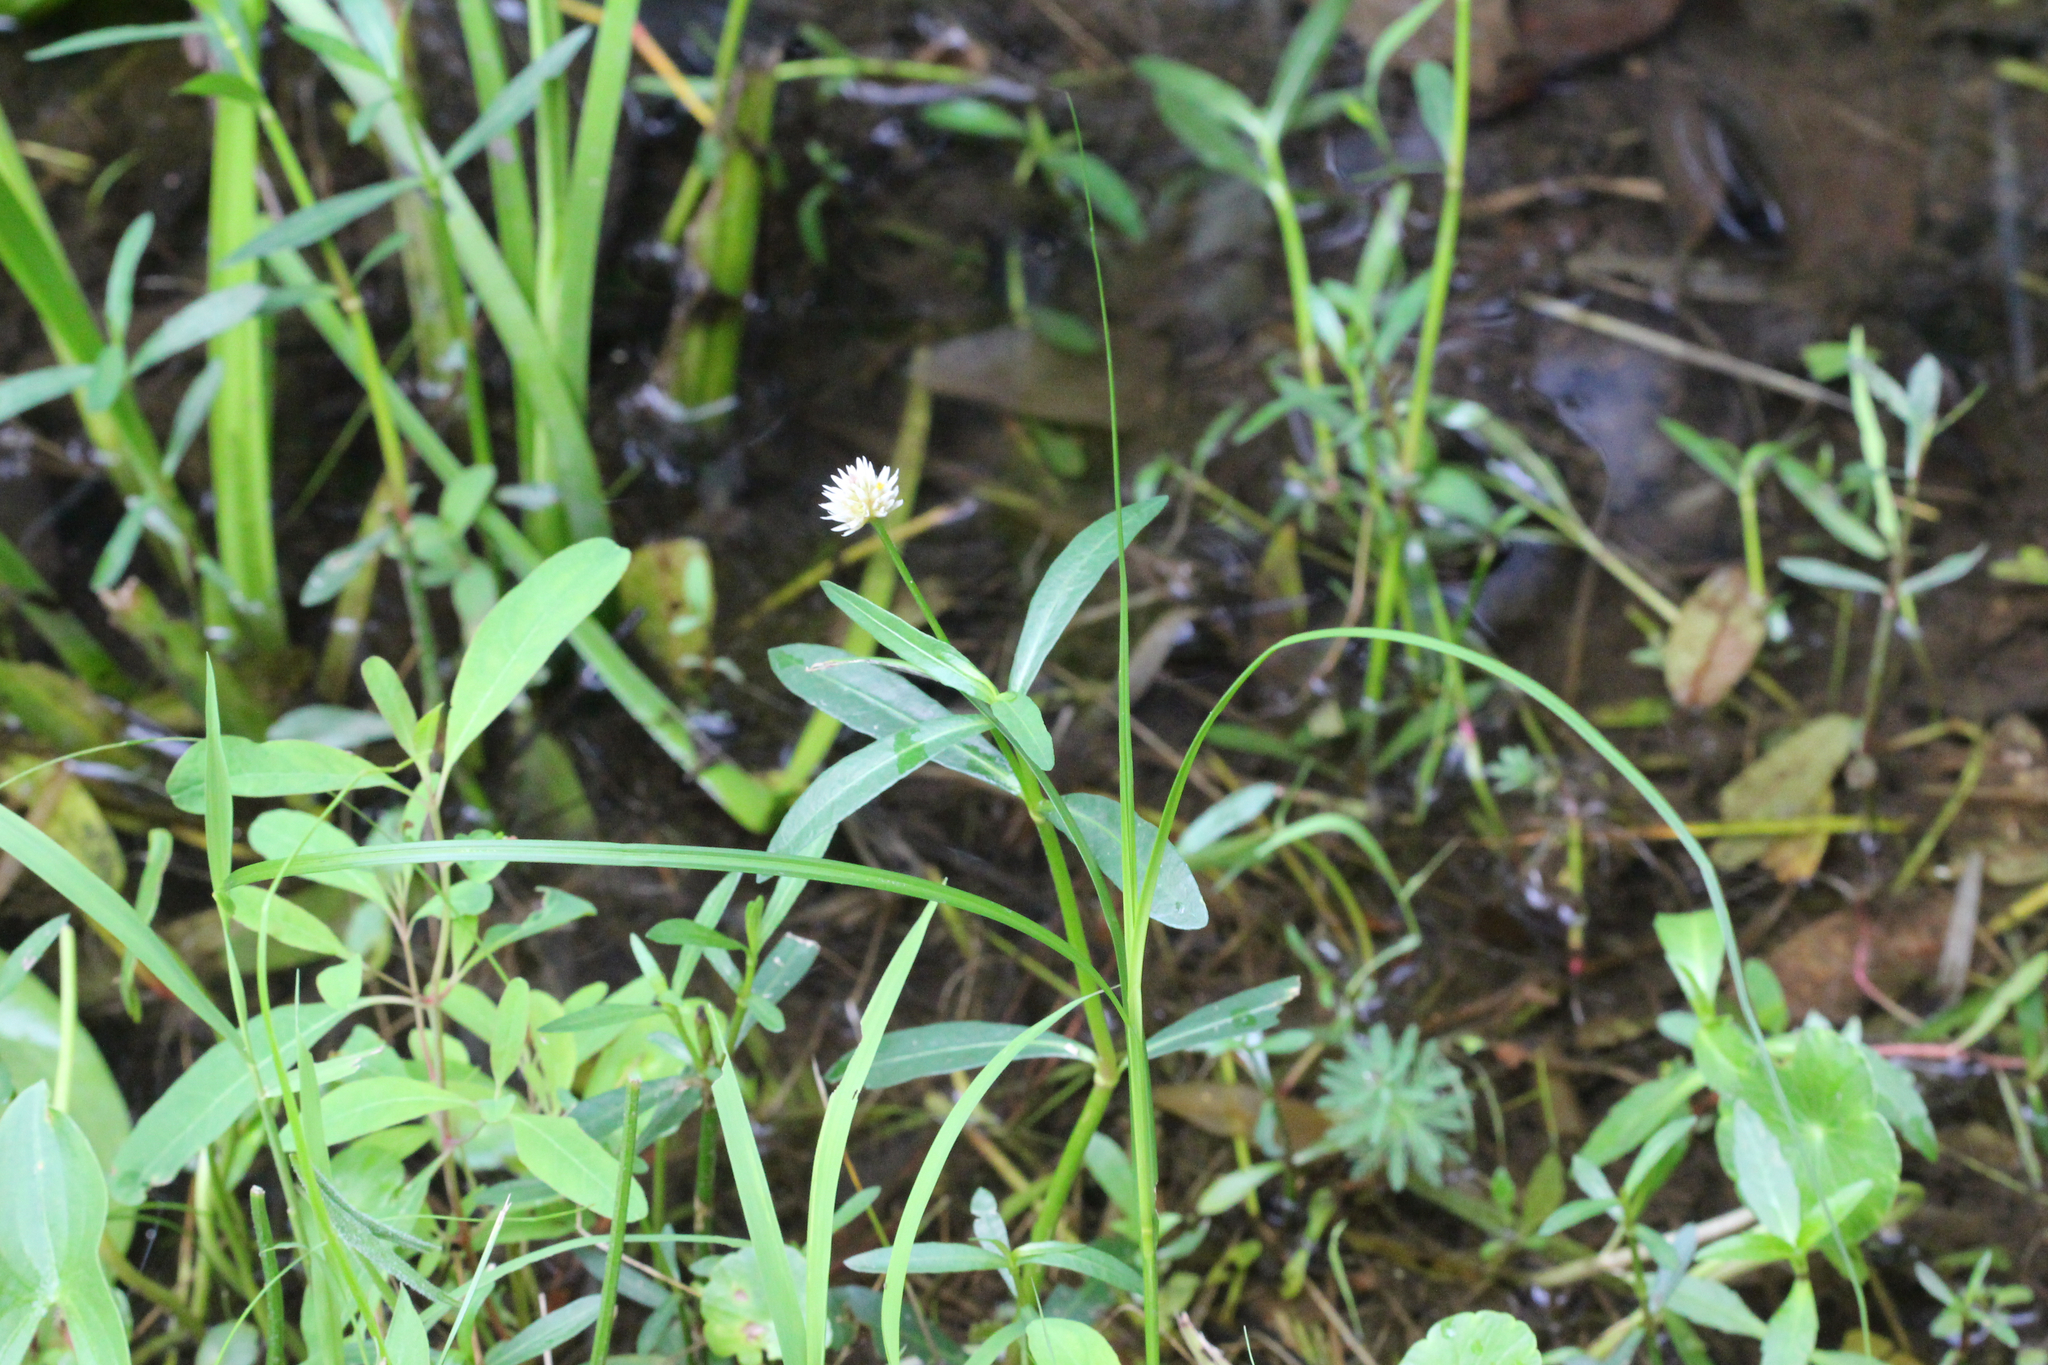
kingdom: Plantae
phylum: Tracheophyta
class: Magnoliopsida
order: Caryophyllales
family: Amaranthaceae
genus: Alternanthera
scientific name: Alternanthera philoxeroides
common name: Alligatorweed
